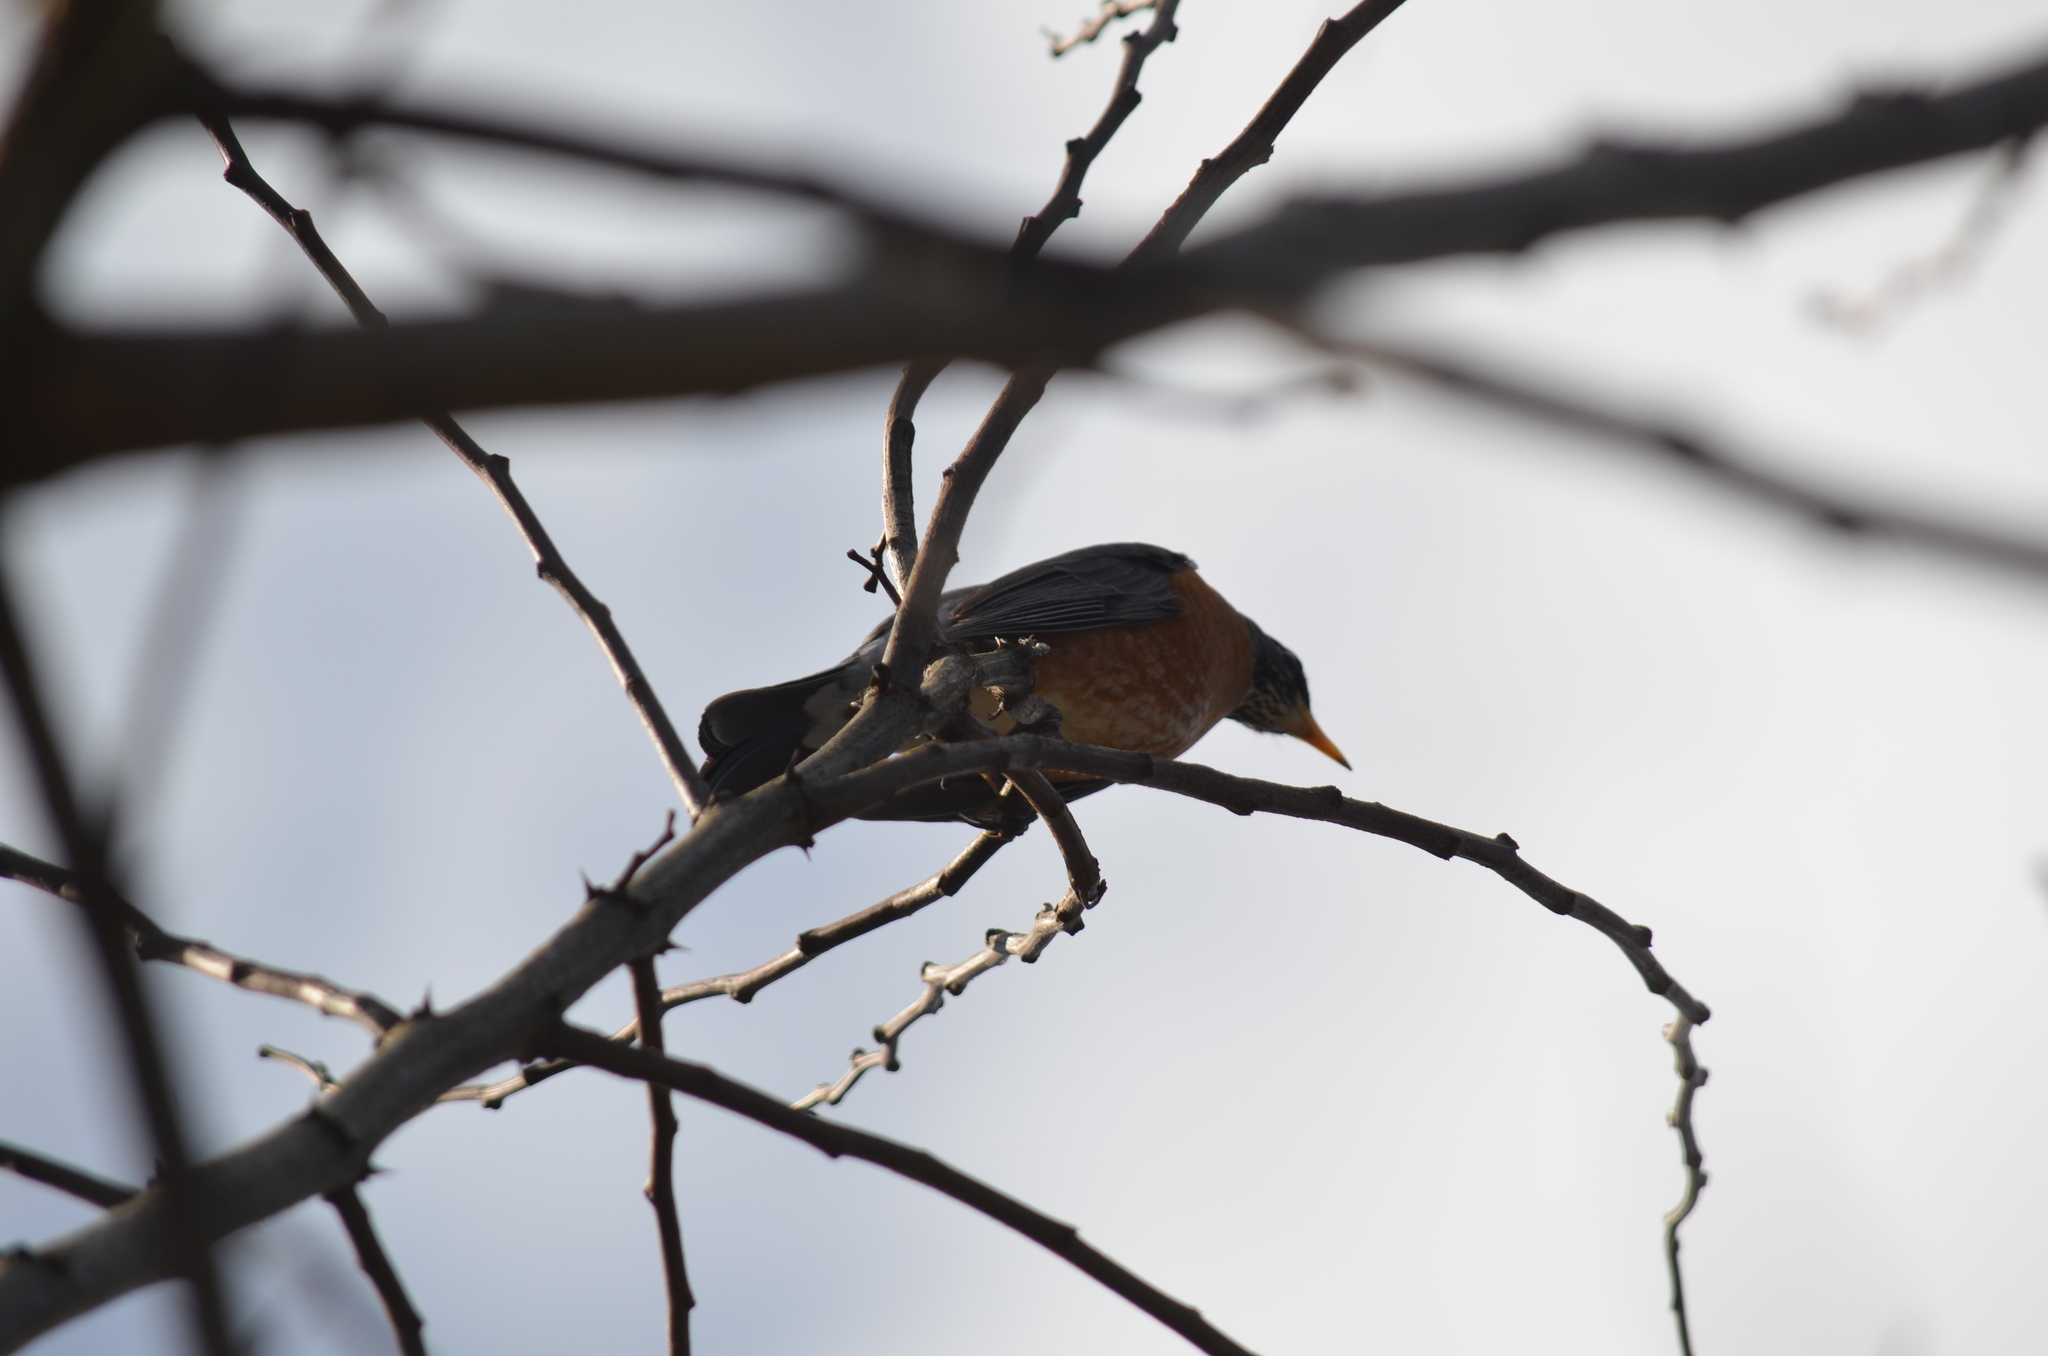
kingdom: Animalia
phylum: Chordata
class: Aves
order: Passeriformes
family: Turdidae
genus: Turdus
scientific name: Turdus migratorius
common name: American robin
